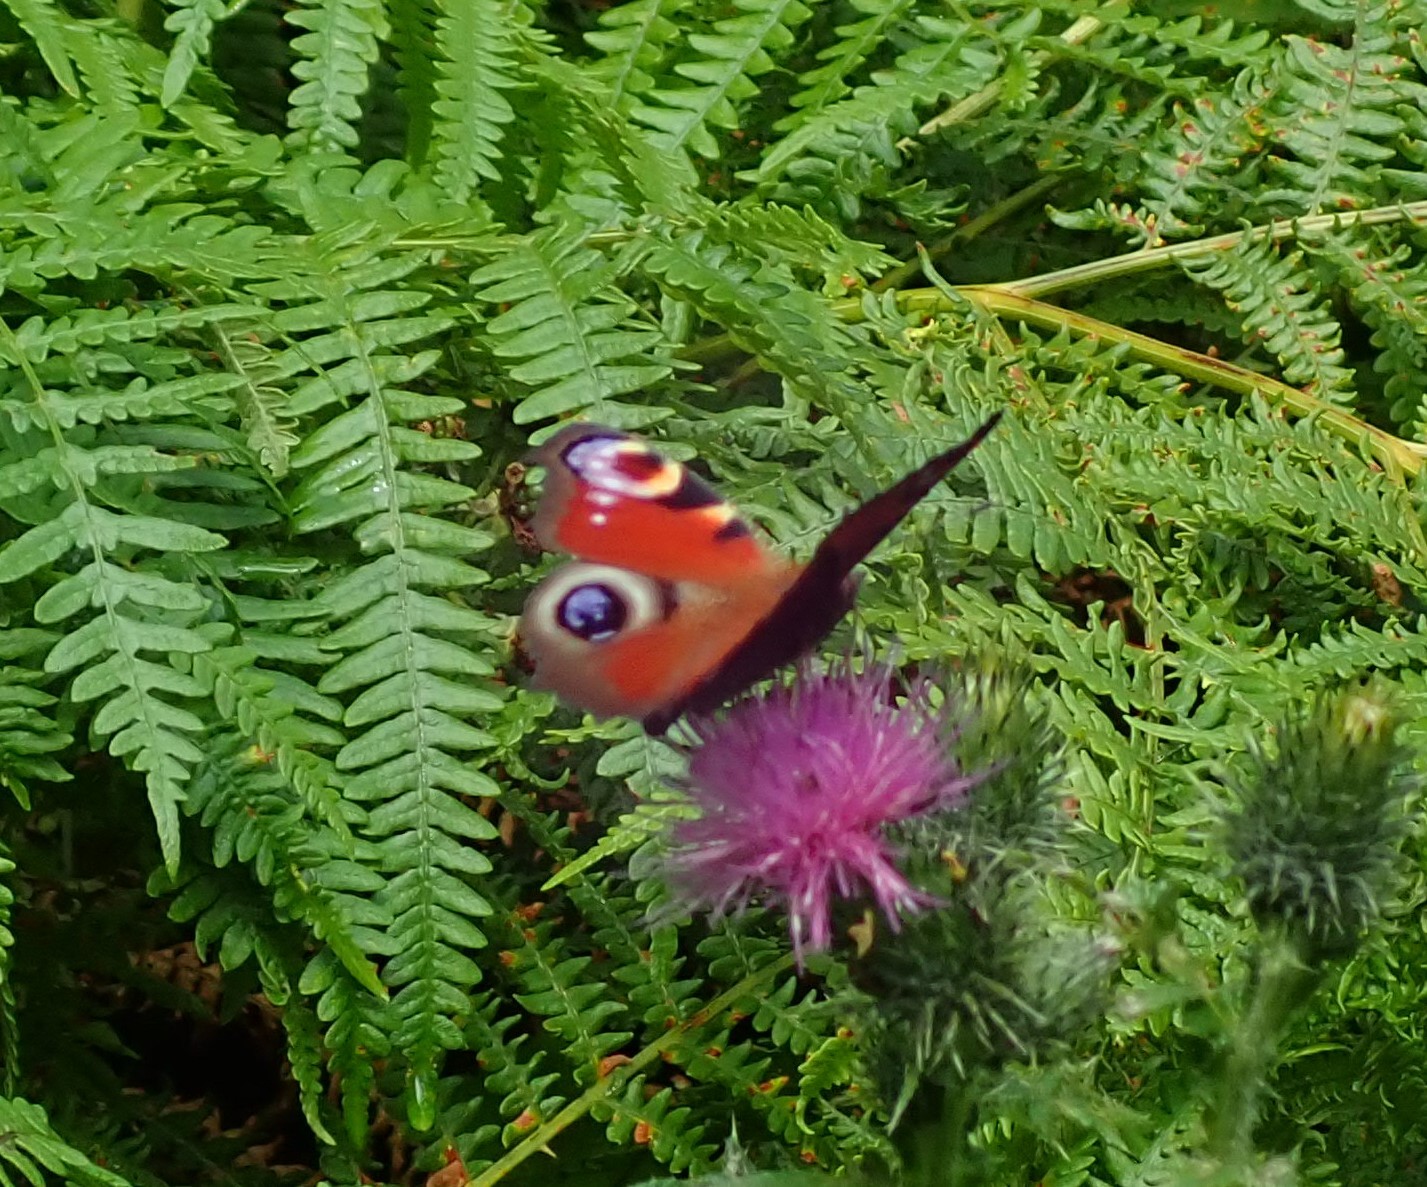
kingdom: Animalia
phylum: Arthropoda
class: Insecta
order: Lepidoptera
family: Nymphalidae
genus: Aglais
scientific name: Aglais io
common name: Peacock
